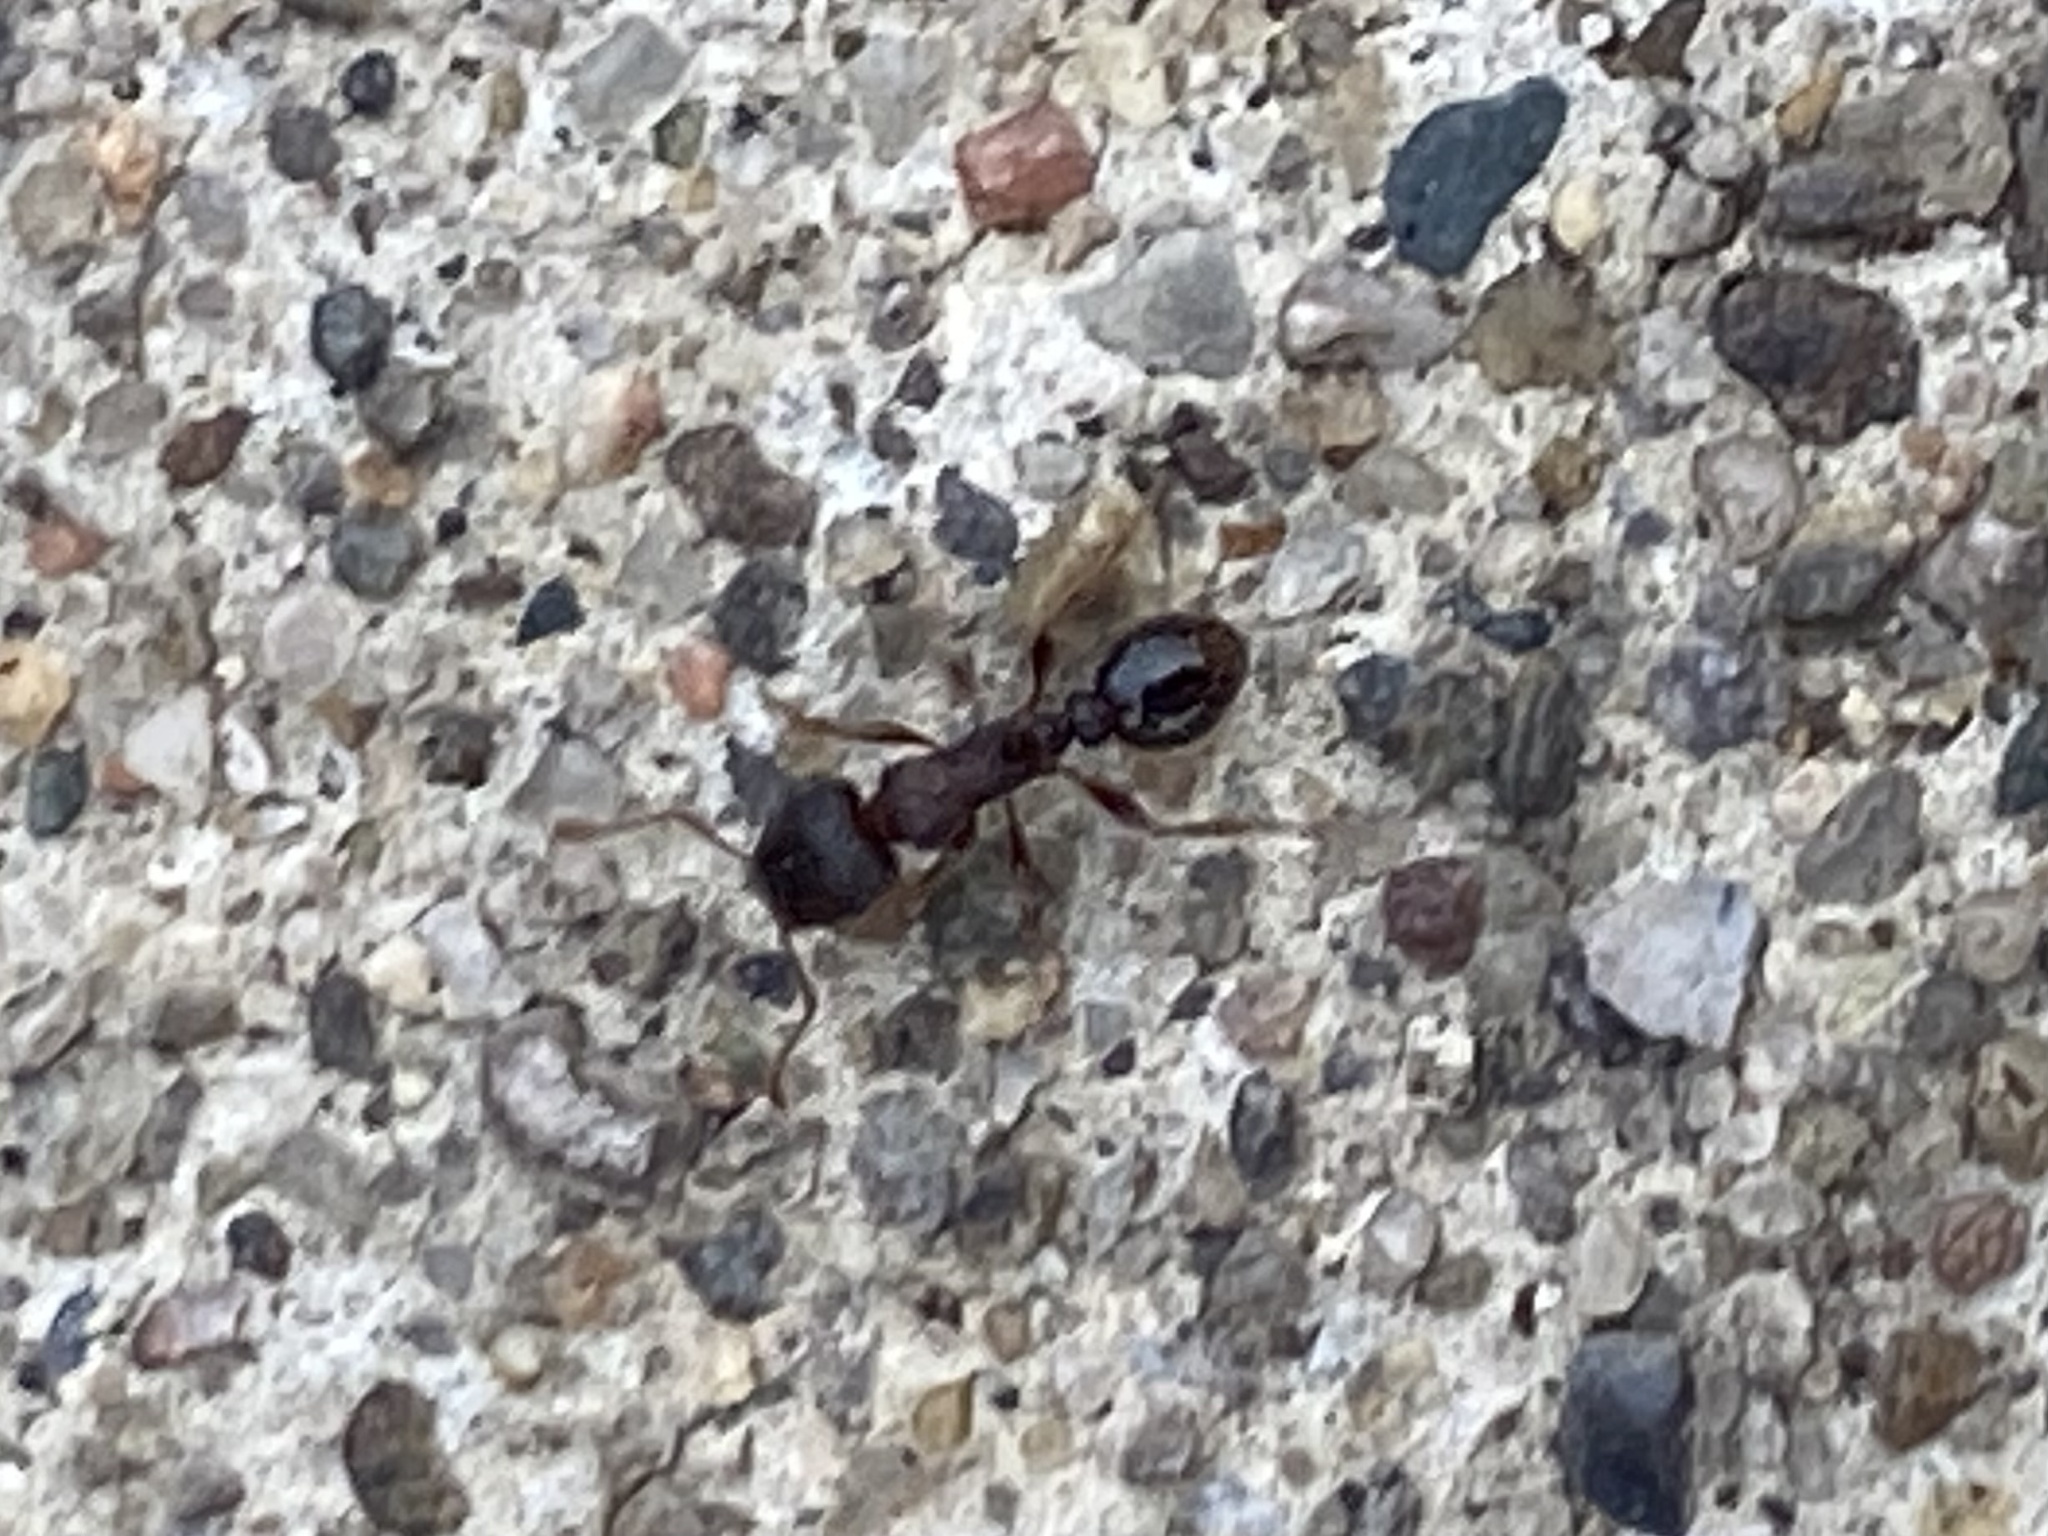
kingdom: Animalia
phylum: Arthropoda
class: Insecta
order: Hymenoptera
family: Formicidae
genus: Tetramorium
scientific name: Tetramorium immigrans
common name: Pavement ant
